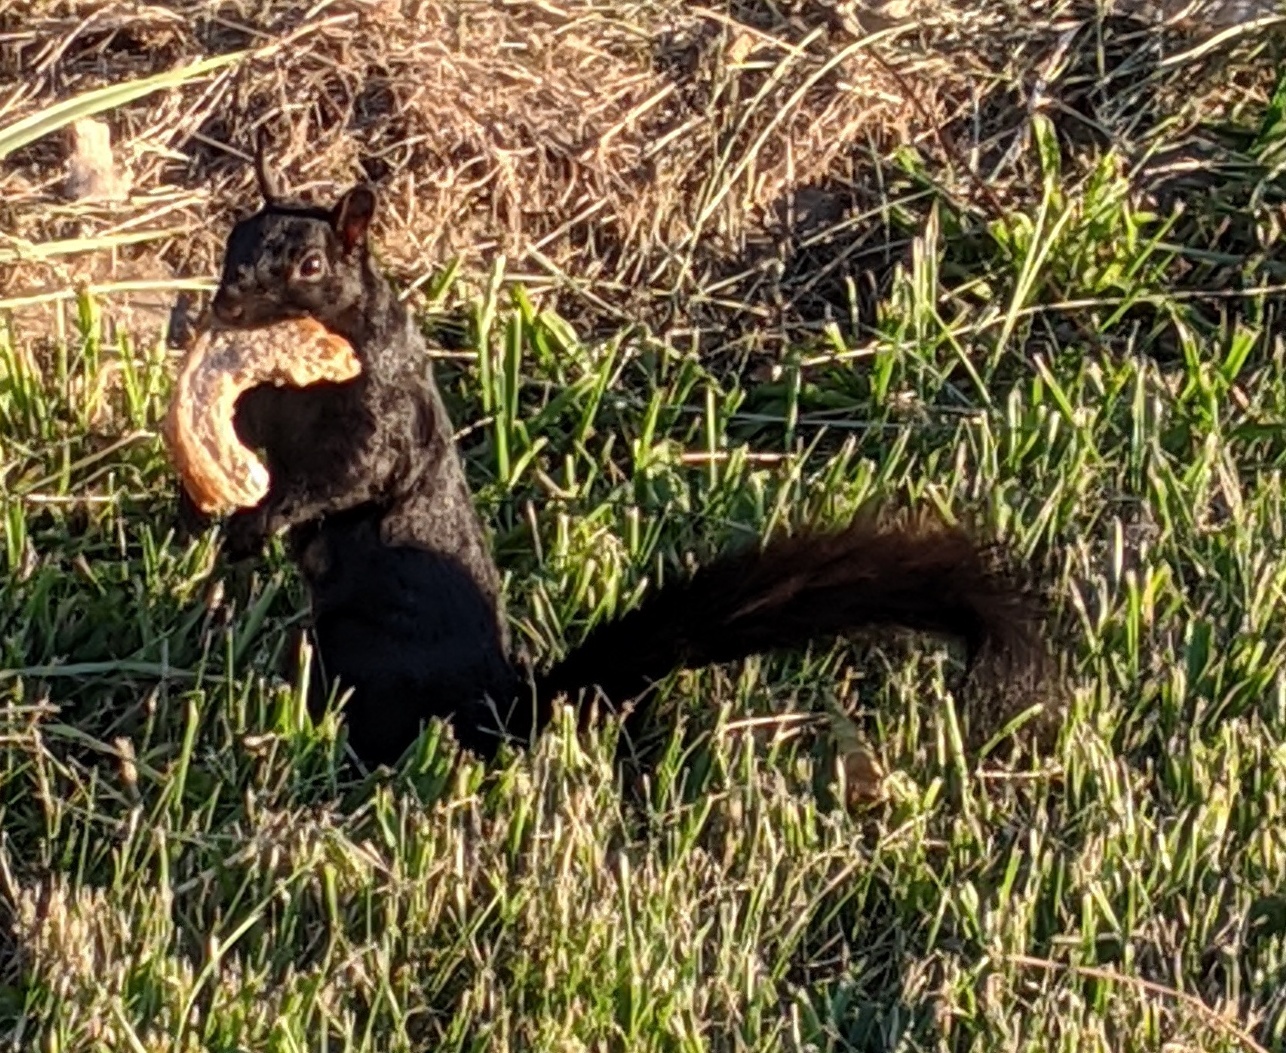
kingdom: Animalia
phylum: Chordata
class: Mammalia
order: Rodentia
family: Sciuridae
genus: Sciurus
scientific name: Sciurus carolinensis
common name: Eastern gray squirrel
